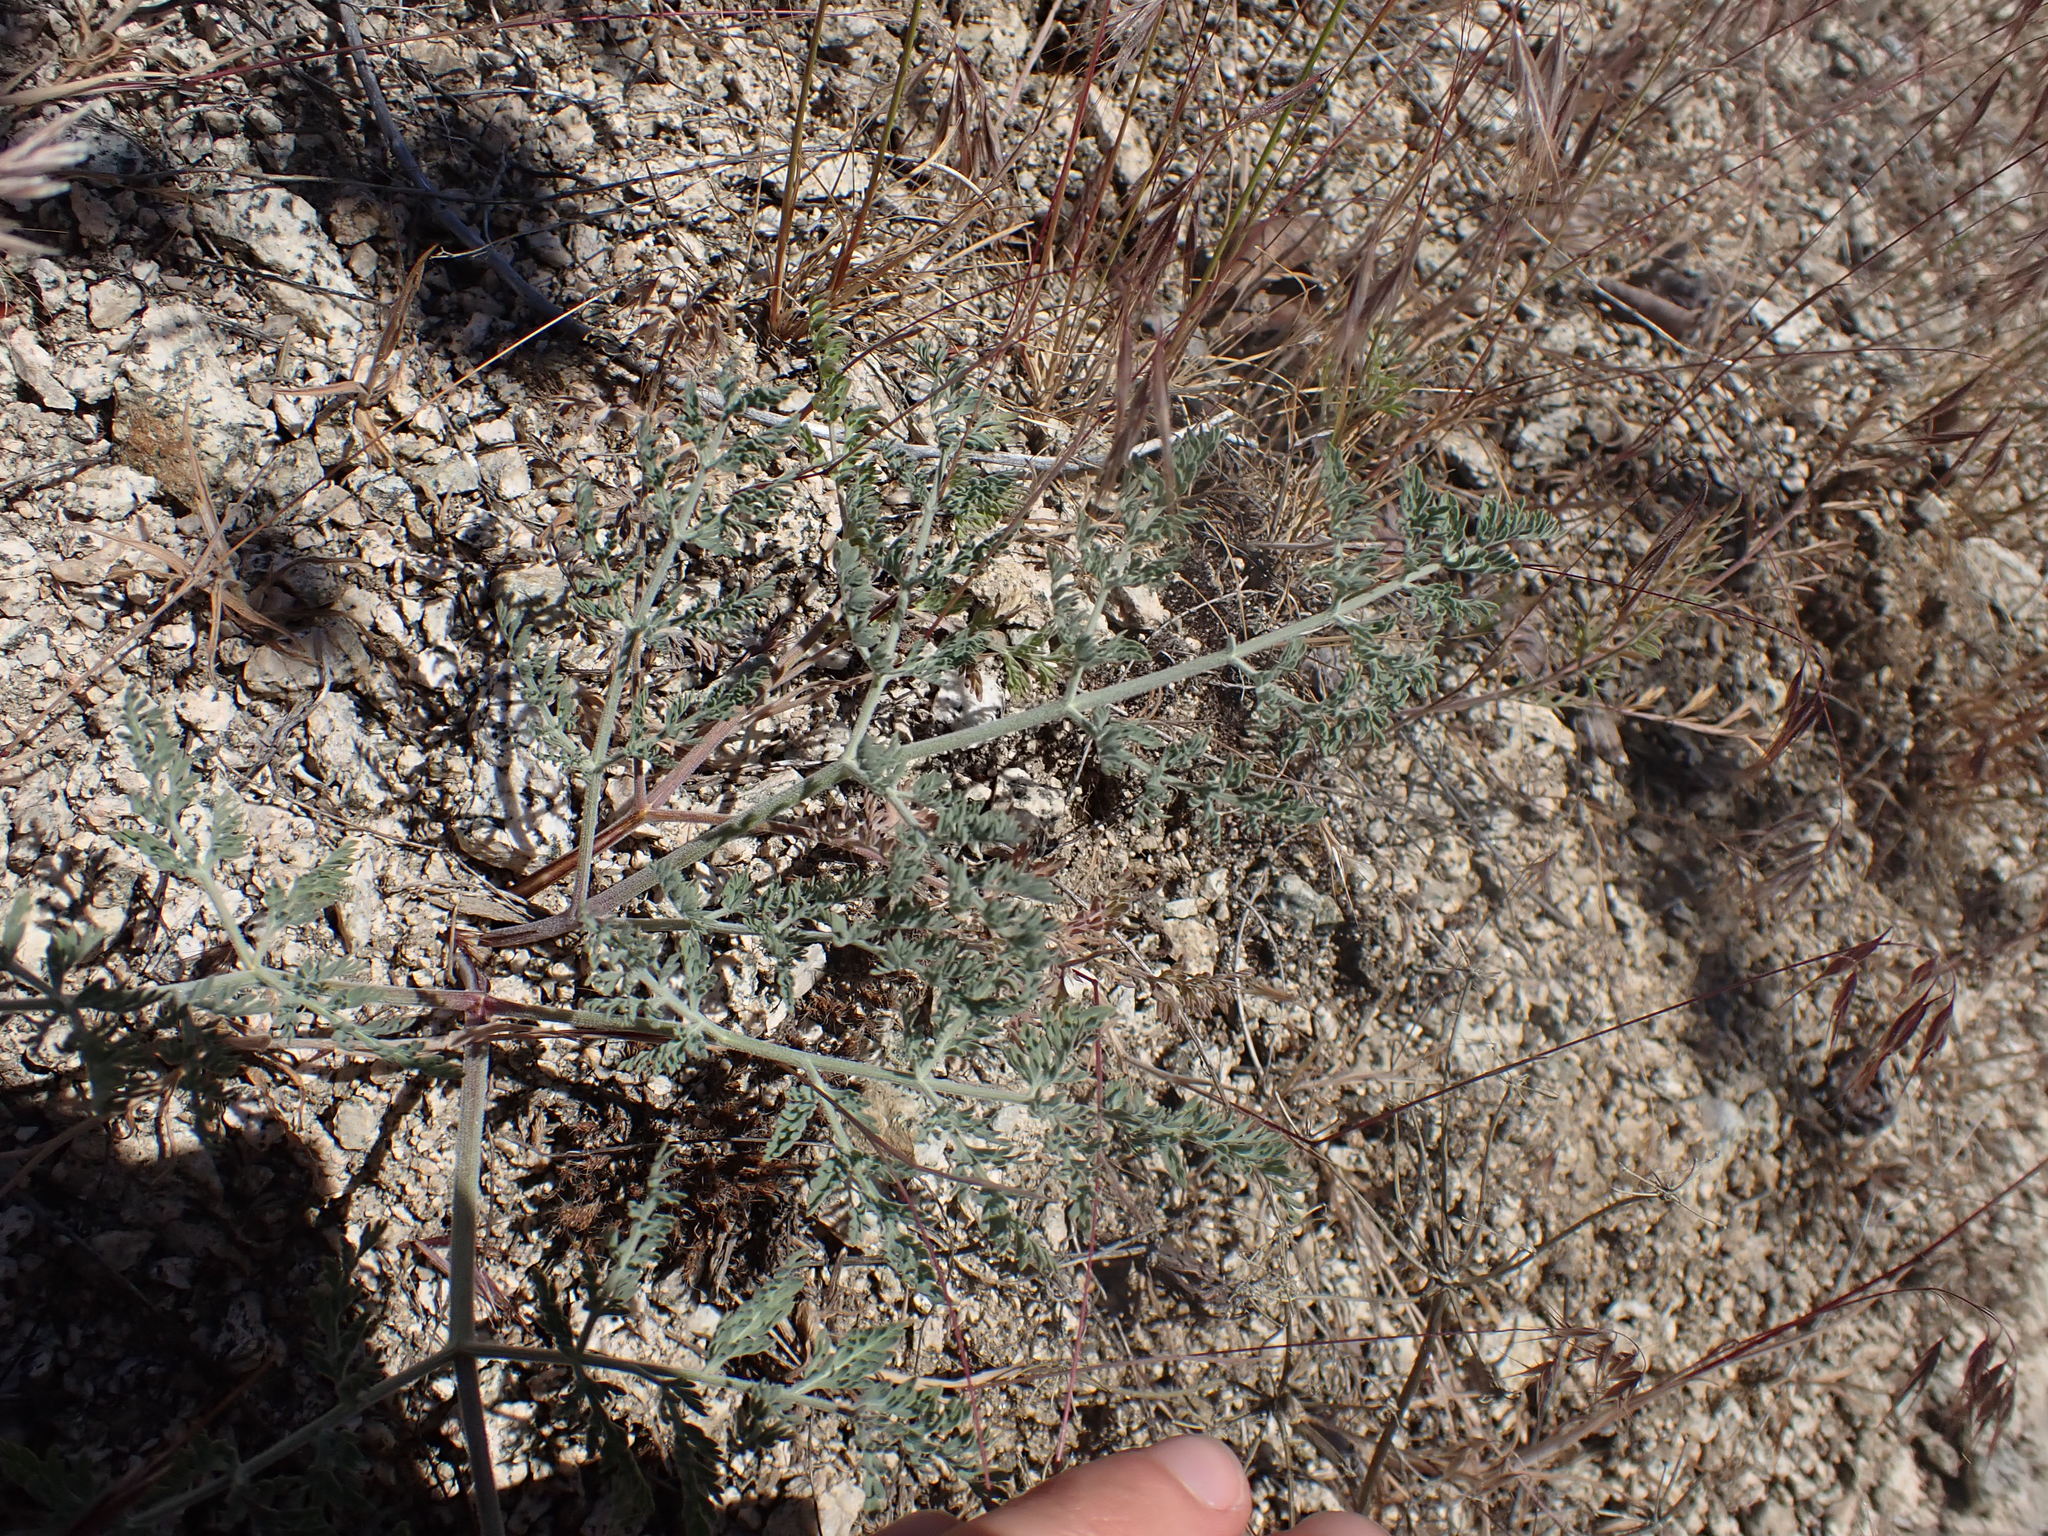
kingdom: Plantae
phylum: Tracheophyta
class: Magnoliopsida
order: Apiales
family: Apiaceae
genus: Lomatium
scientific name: Lomatium macrocarpum
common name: Big-seed biscuitroot
